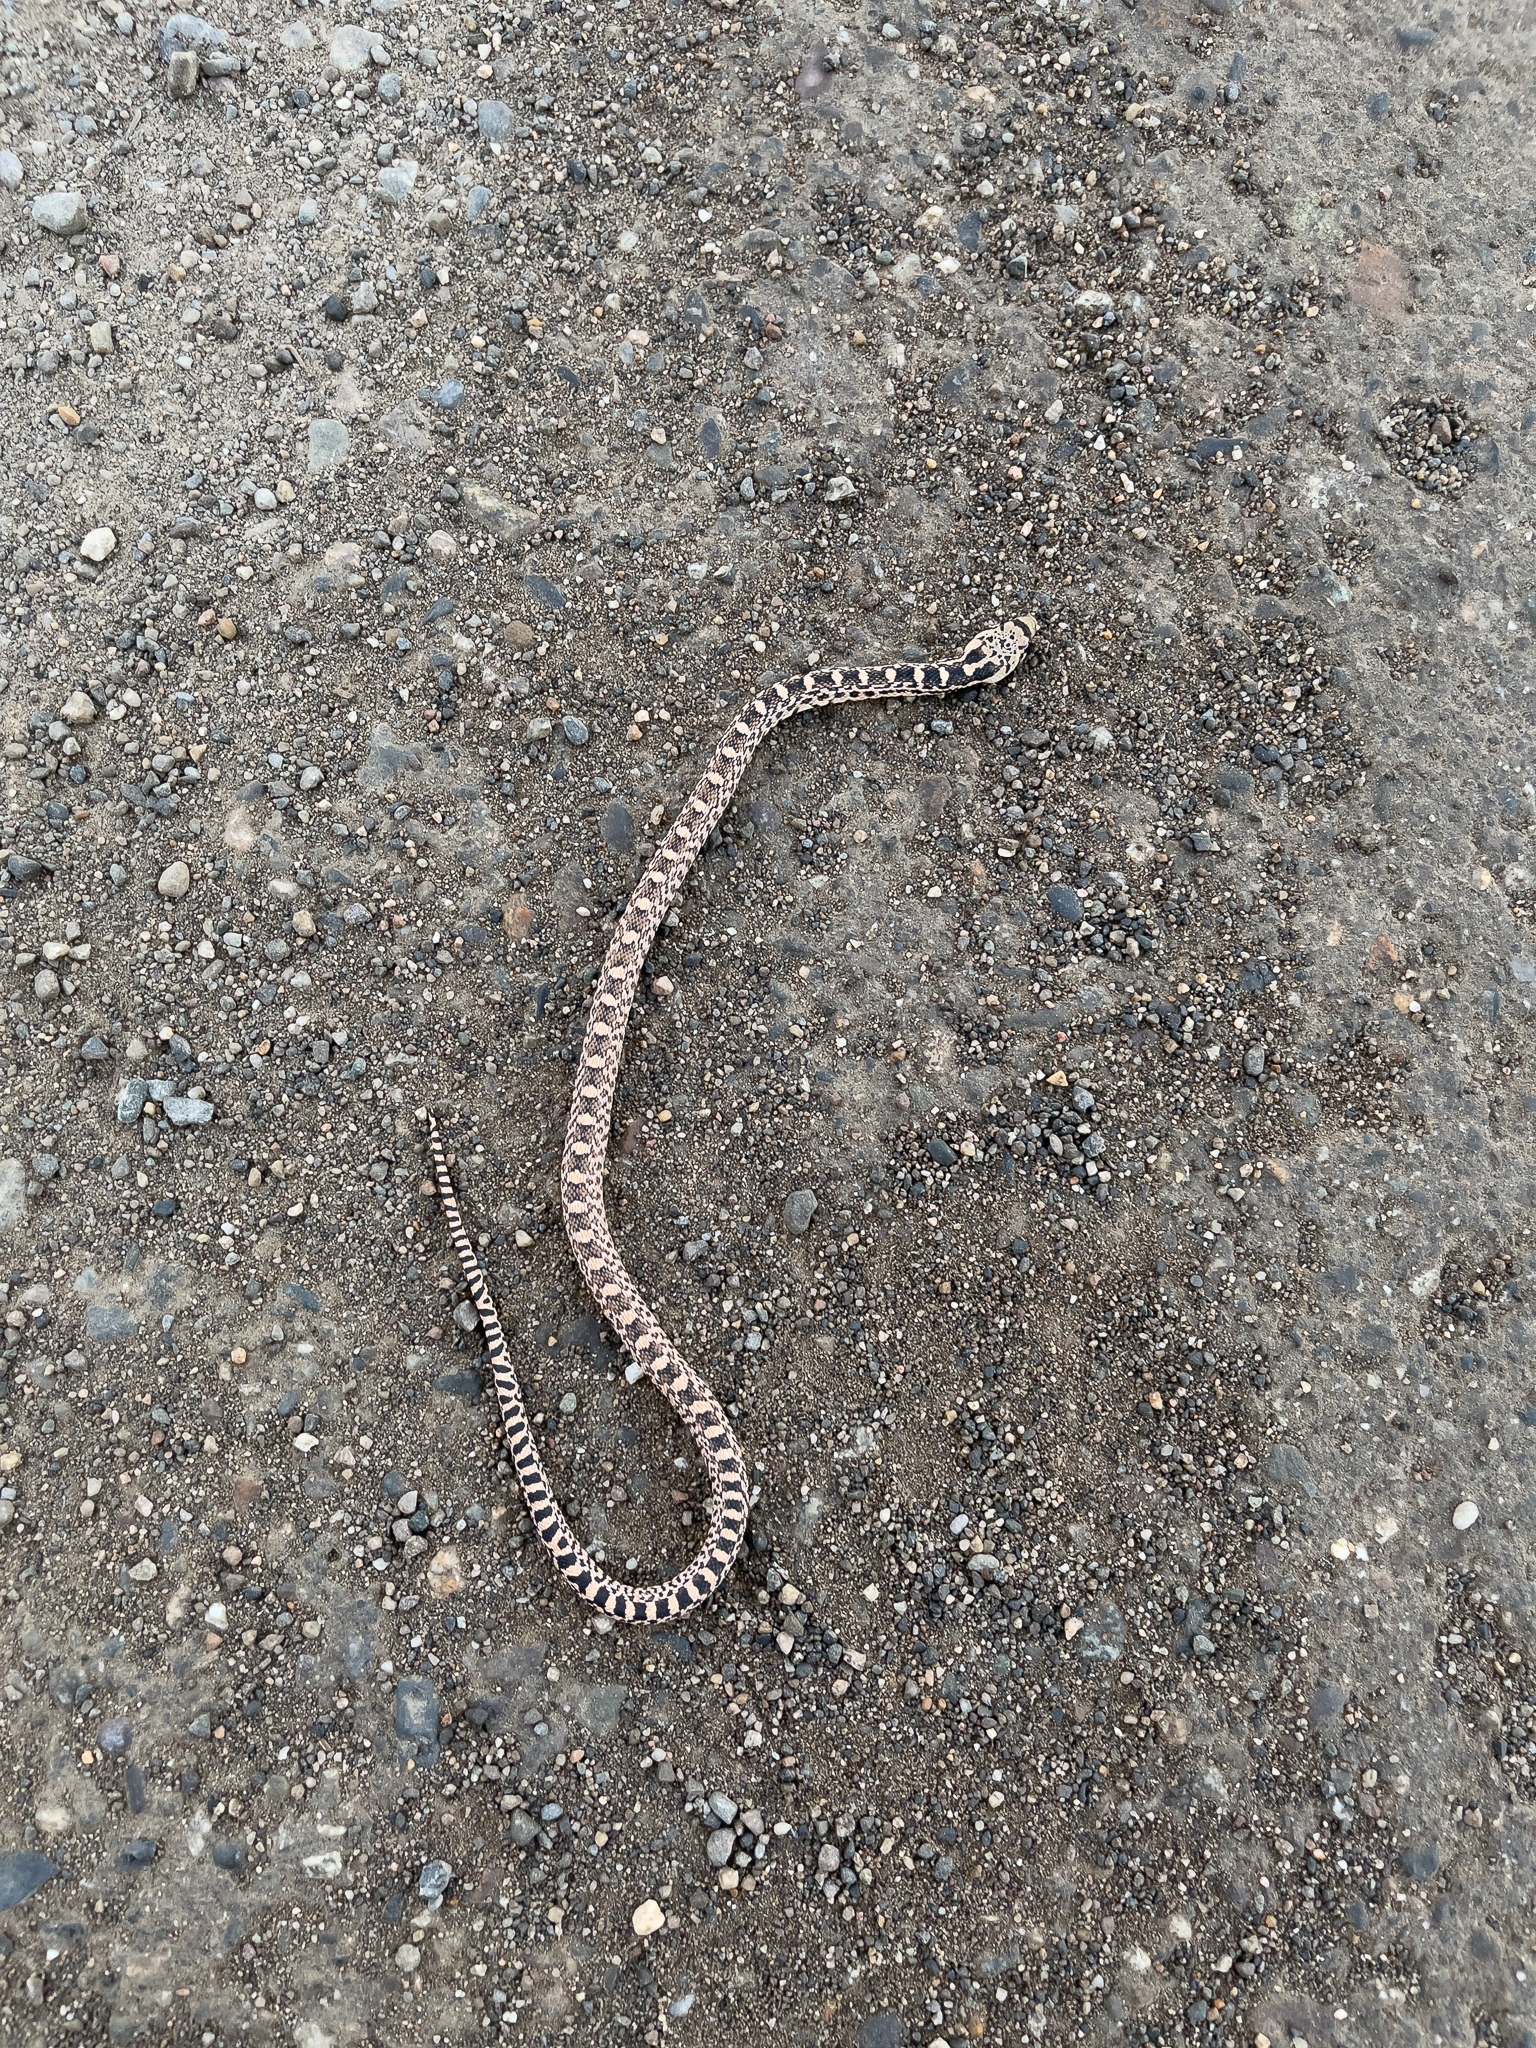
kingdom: Animalia
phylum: Chordata
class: Squamata
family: Colubridae
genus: Pituophis
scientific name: Pituophis catenifer
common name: Gopher snake
